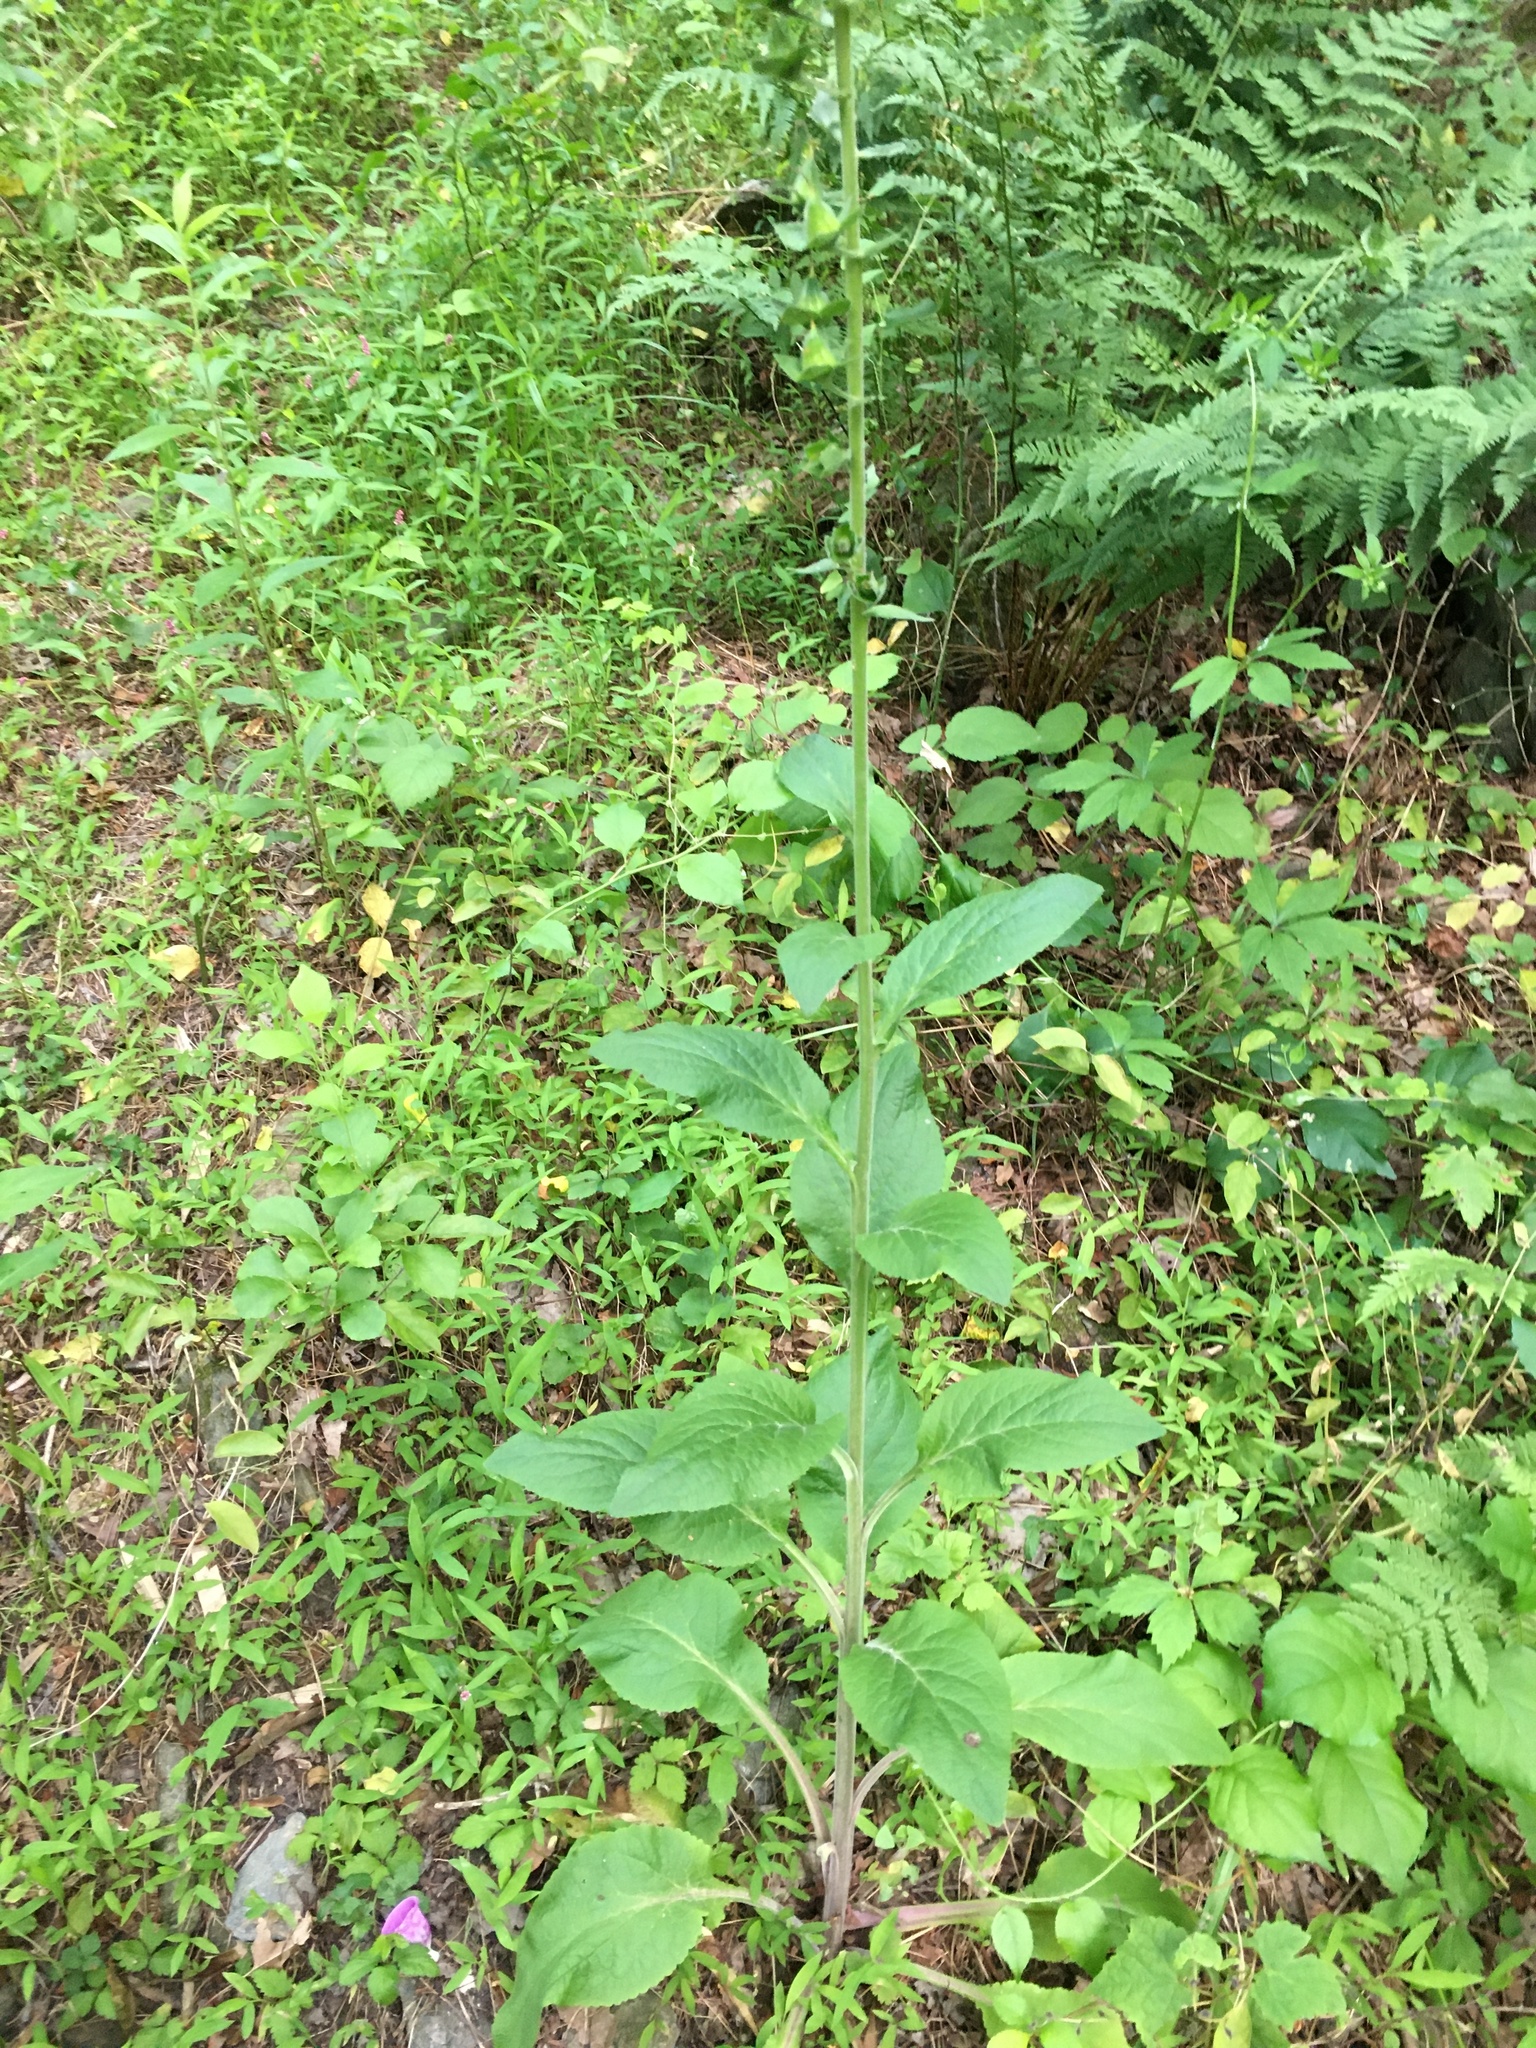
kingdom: Plantae
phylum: Tracheophyta
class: Magnoliopsida
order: Lamiales
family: Plantaginaceae
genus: Digitalis
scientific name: Digitalis purpurea
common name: Foxglove
